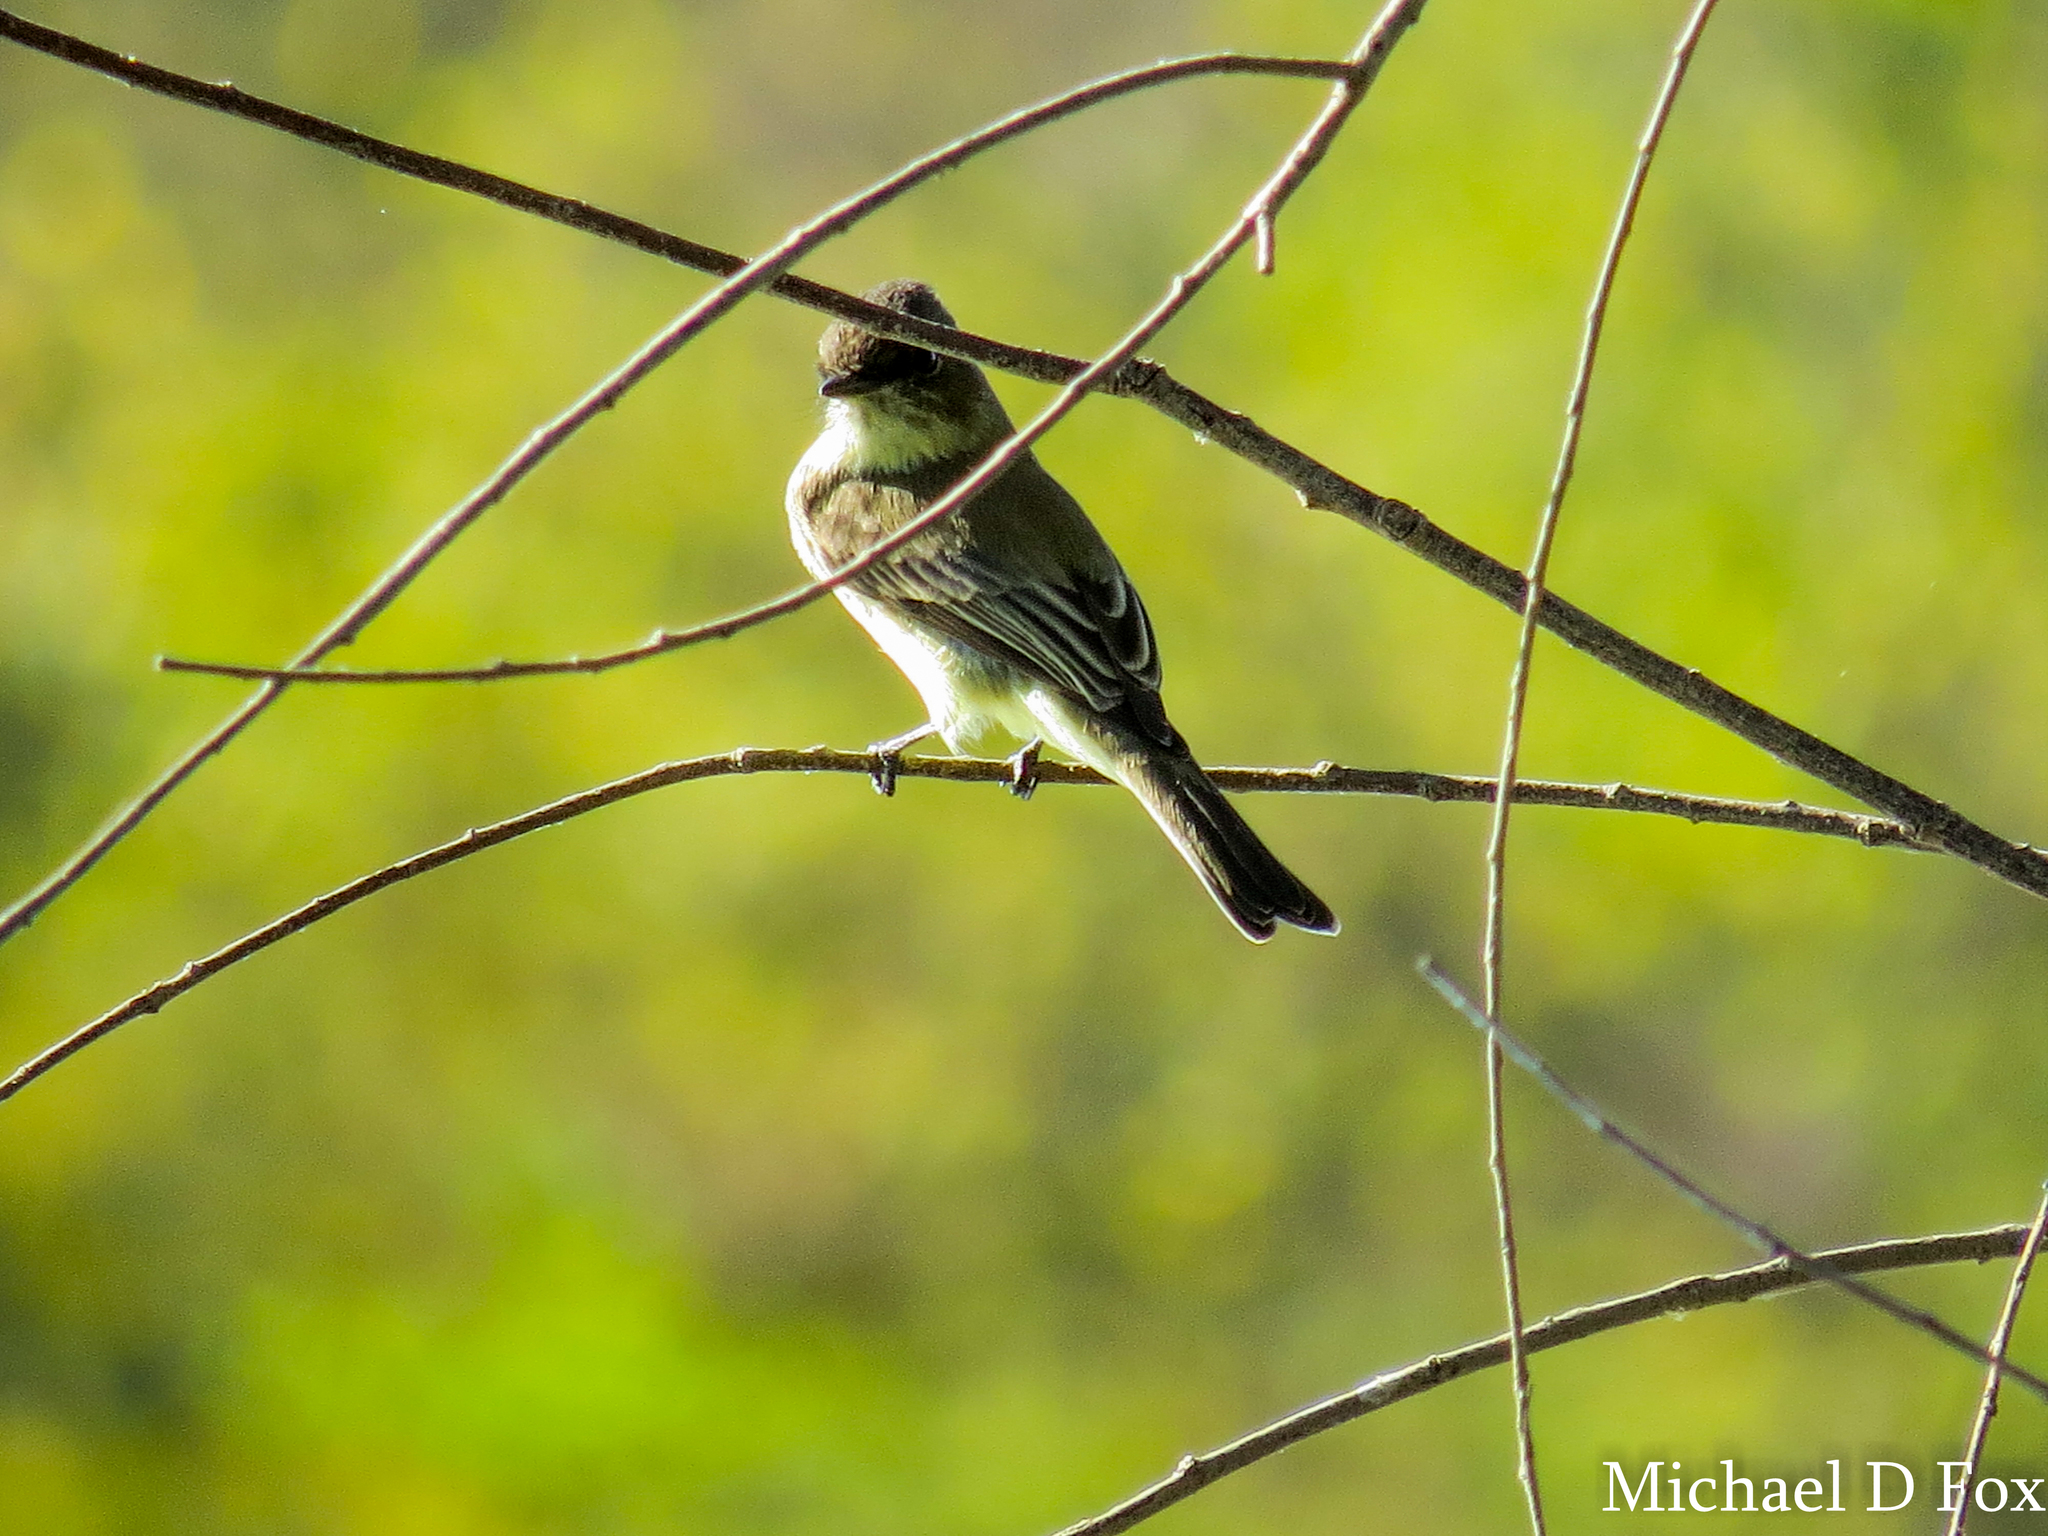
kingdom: Animalia
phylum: Chordata
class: Aves
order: Passeriformes
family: Tyrannidae
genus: Sayornis
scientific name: Sayornis phoebe
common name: Eastern phoebe
